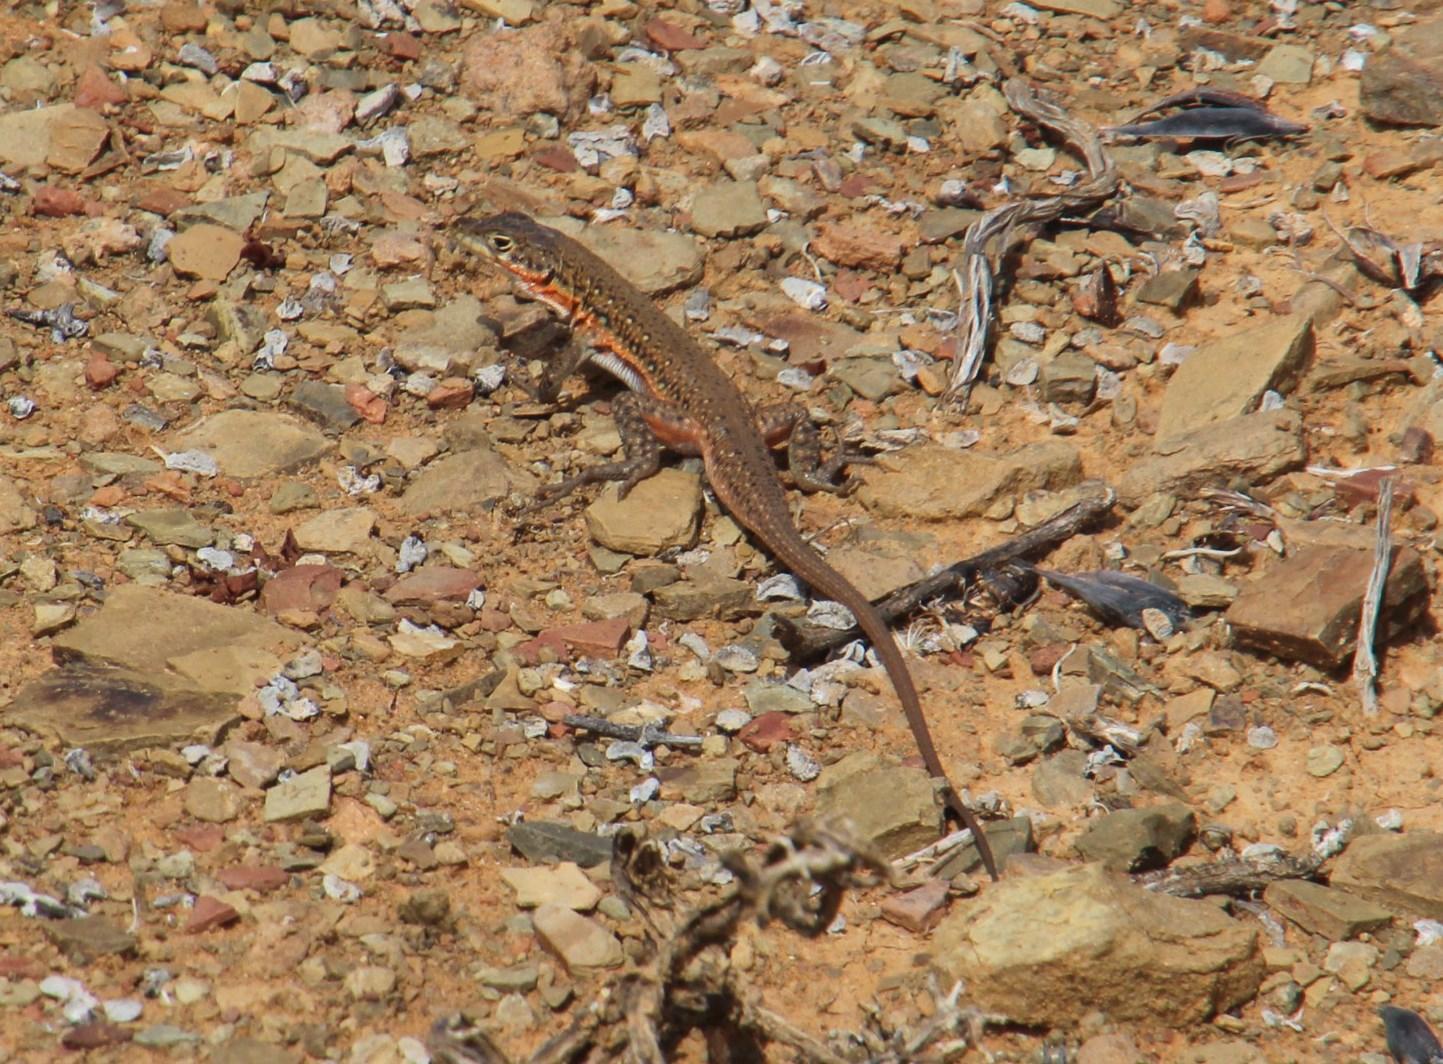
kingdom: Animalia
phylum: Chordata
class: Squamata
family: Lacertidae
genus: Pedioplanis
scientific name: Pedioplanis lineoocellata
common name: Spotted sand lizard
